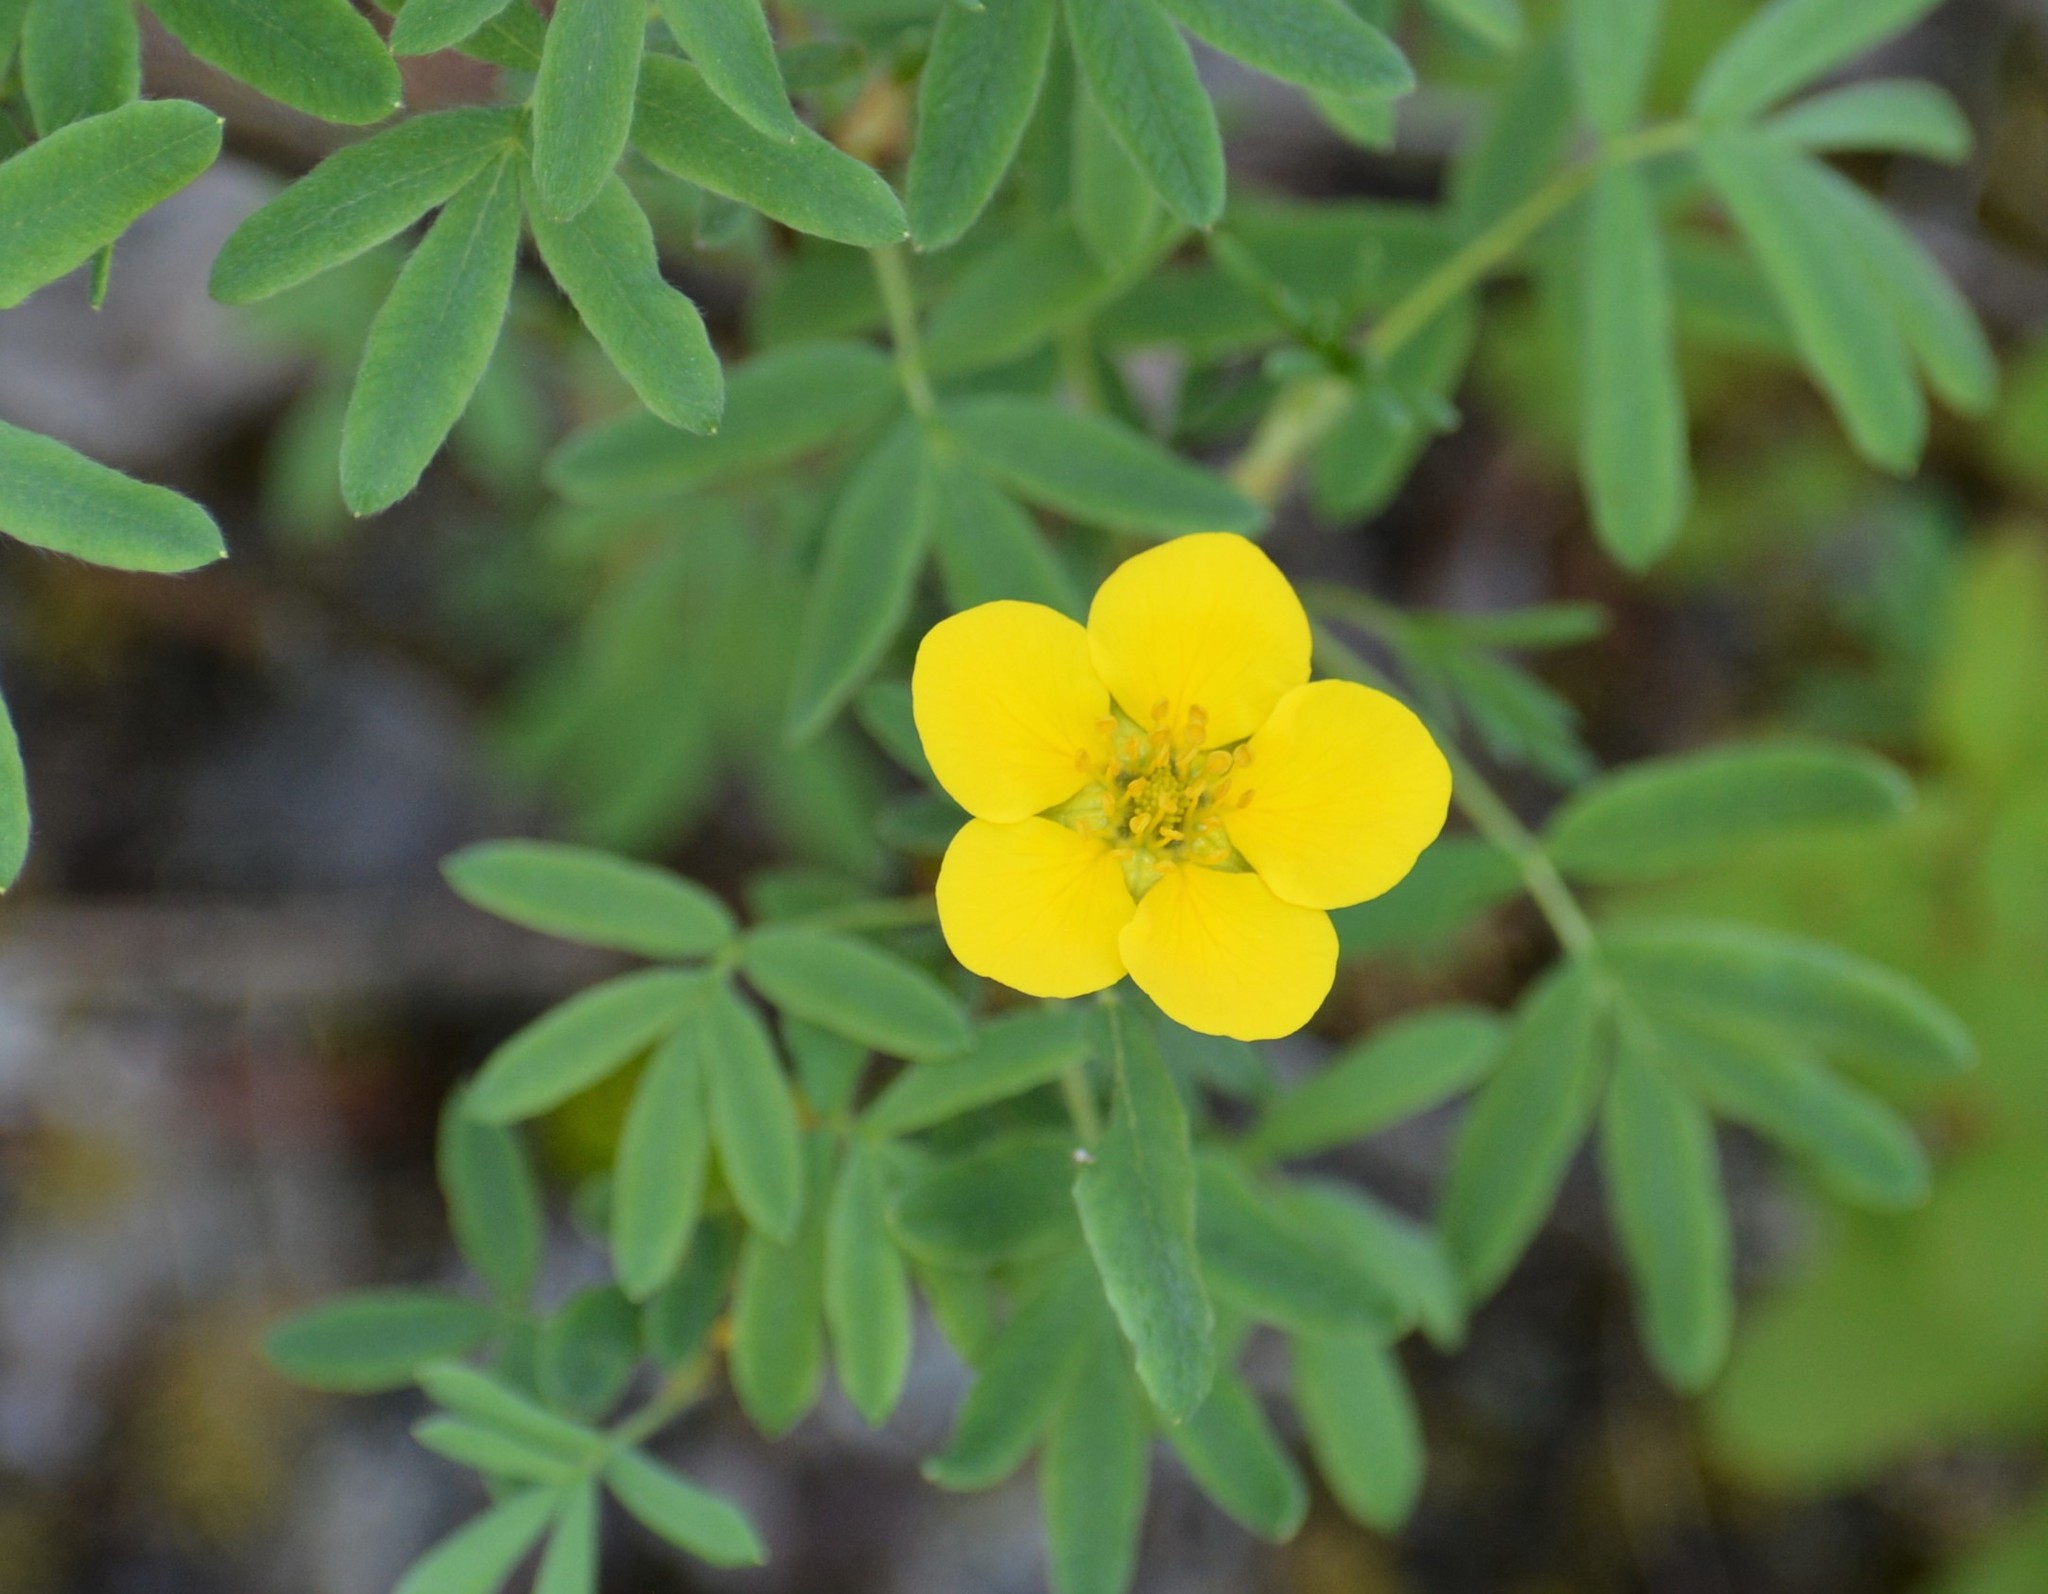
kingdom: Plantae
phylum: Tracheophyta
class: Magnoliopsida
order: Rosales
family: Rosaceae
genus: Dasiphora
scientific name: Dasiphora fruticosa
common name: Shrubby cinquefoil
